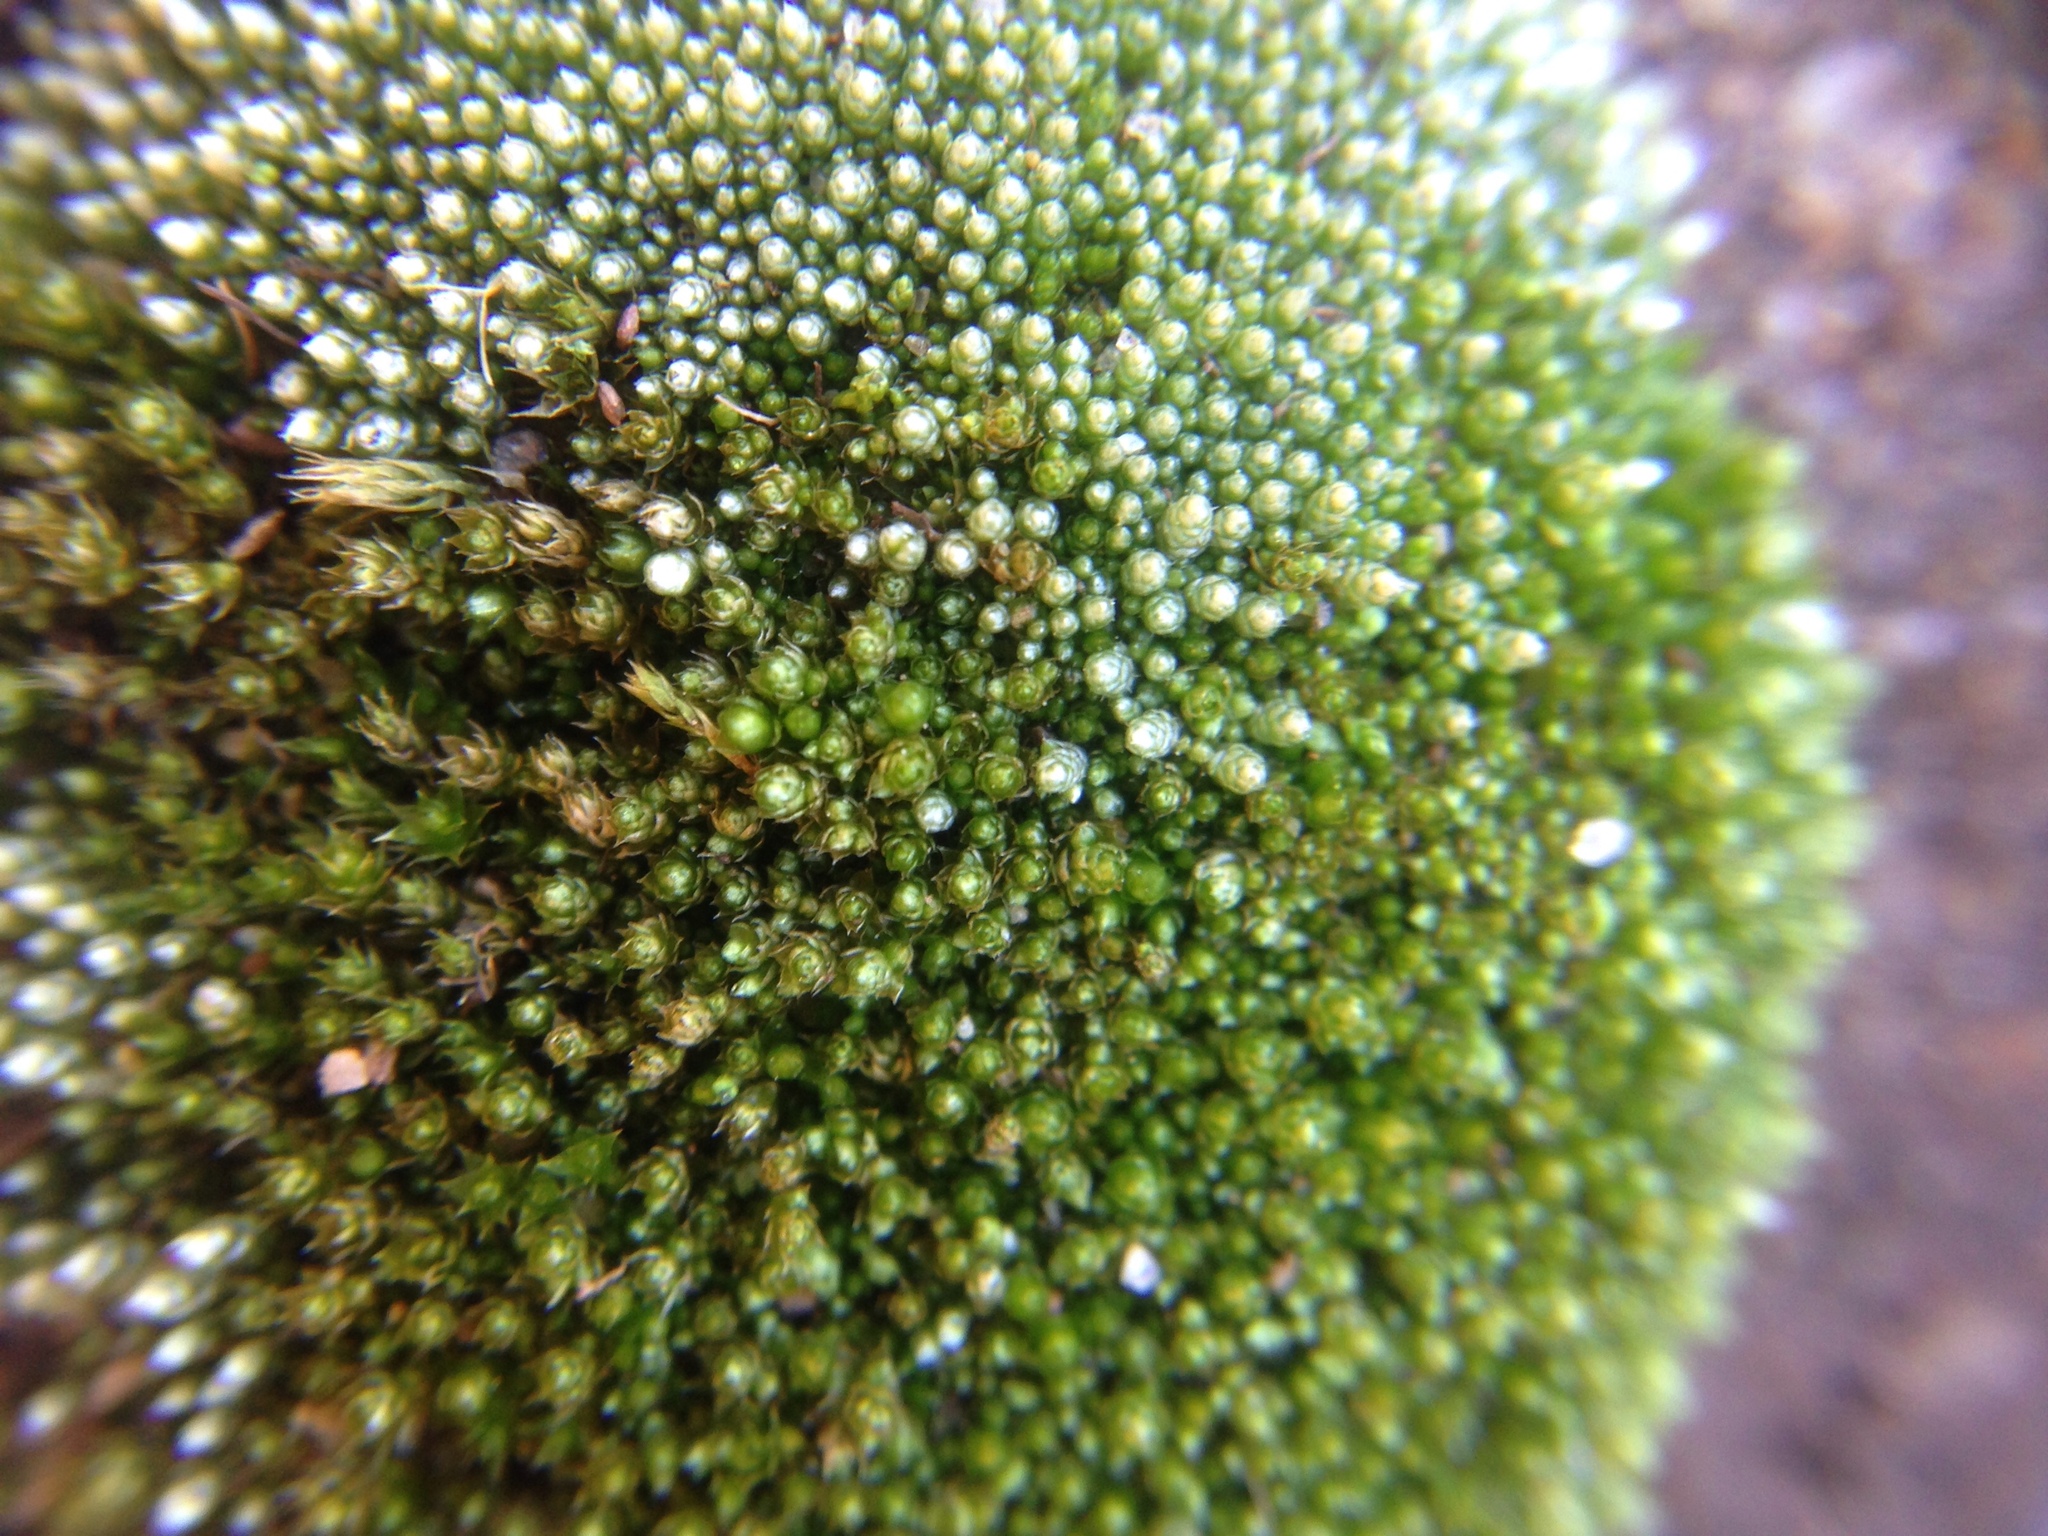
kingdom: Plantae
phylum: Bryophyta
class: Bryopsida
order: Bryales
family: Bryaceae
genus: Bryum
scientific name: Bryum argenteum
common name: Silver-moss
